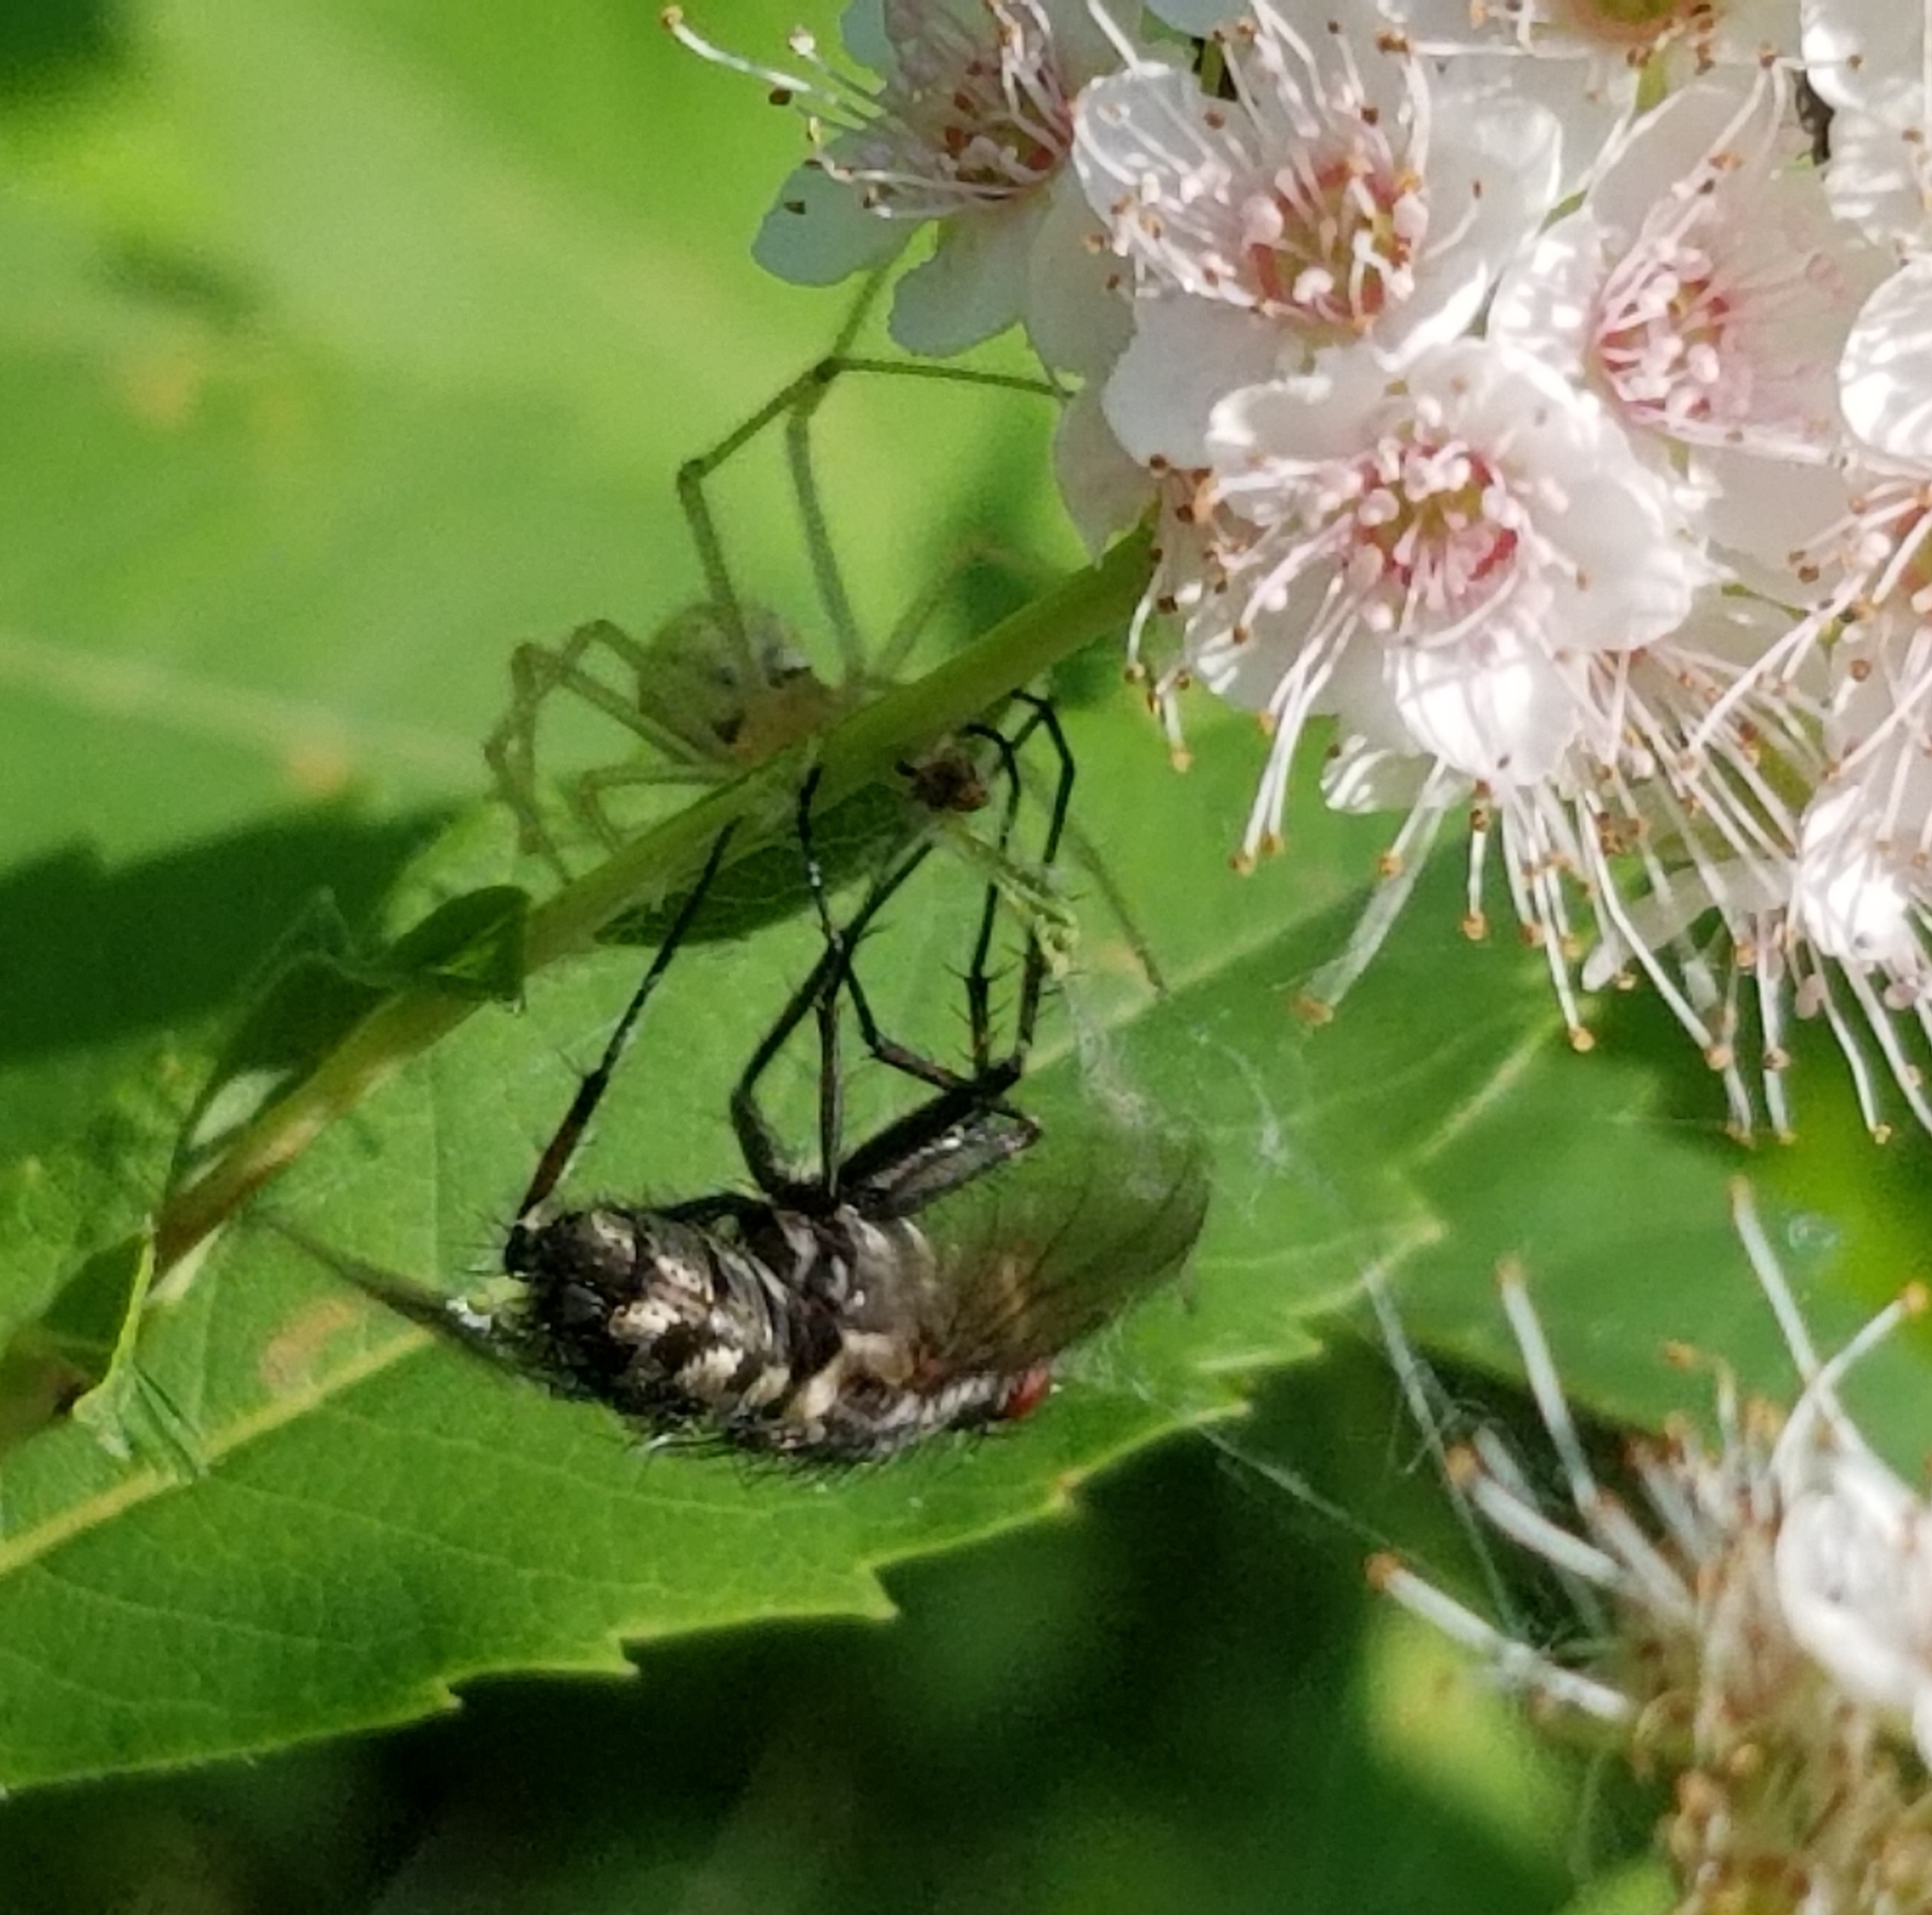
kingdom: Animalia
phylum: Arthropoda
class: Arachnida
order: Araneae
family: Theridiidae
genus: Enoplognatha
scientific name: Enoplognatha ovata
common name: Common candy-striped spider
